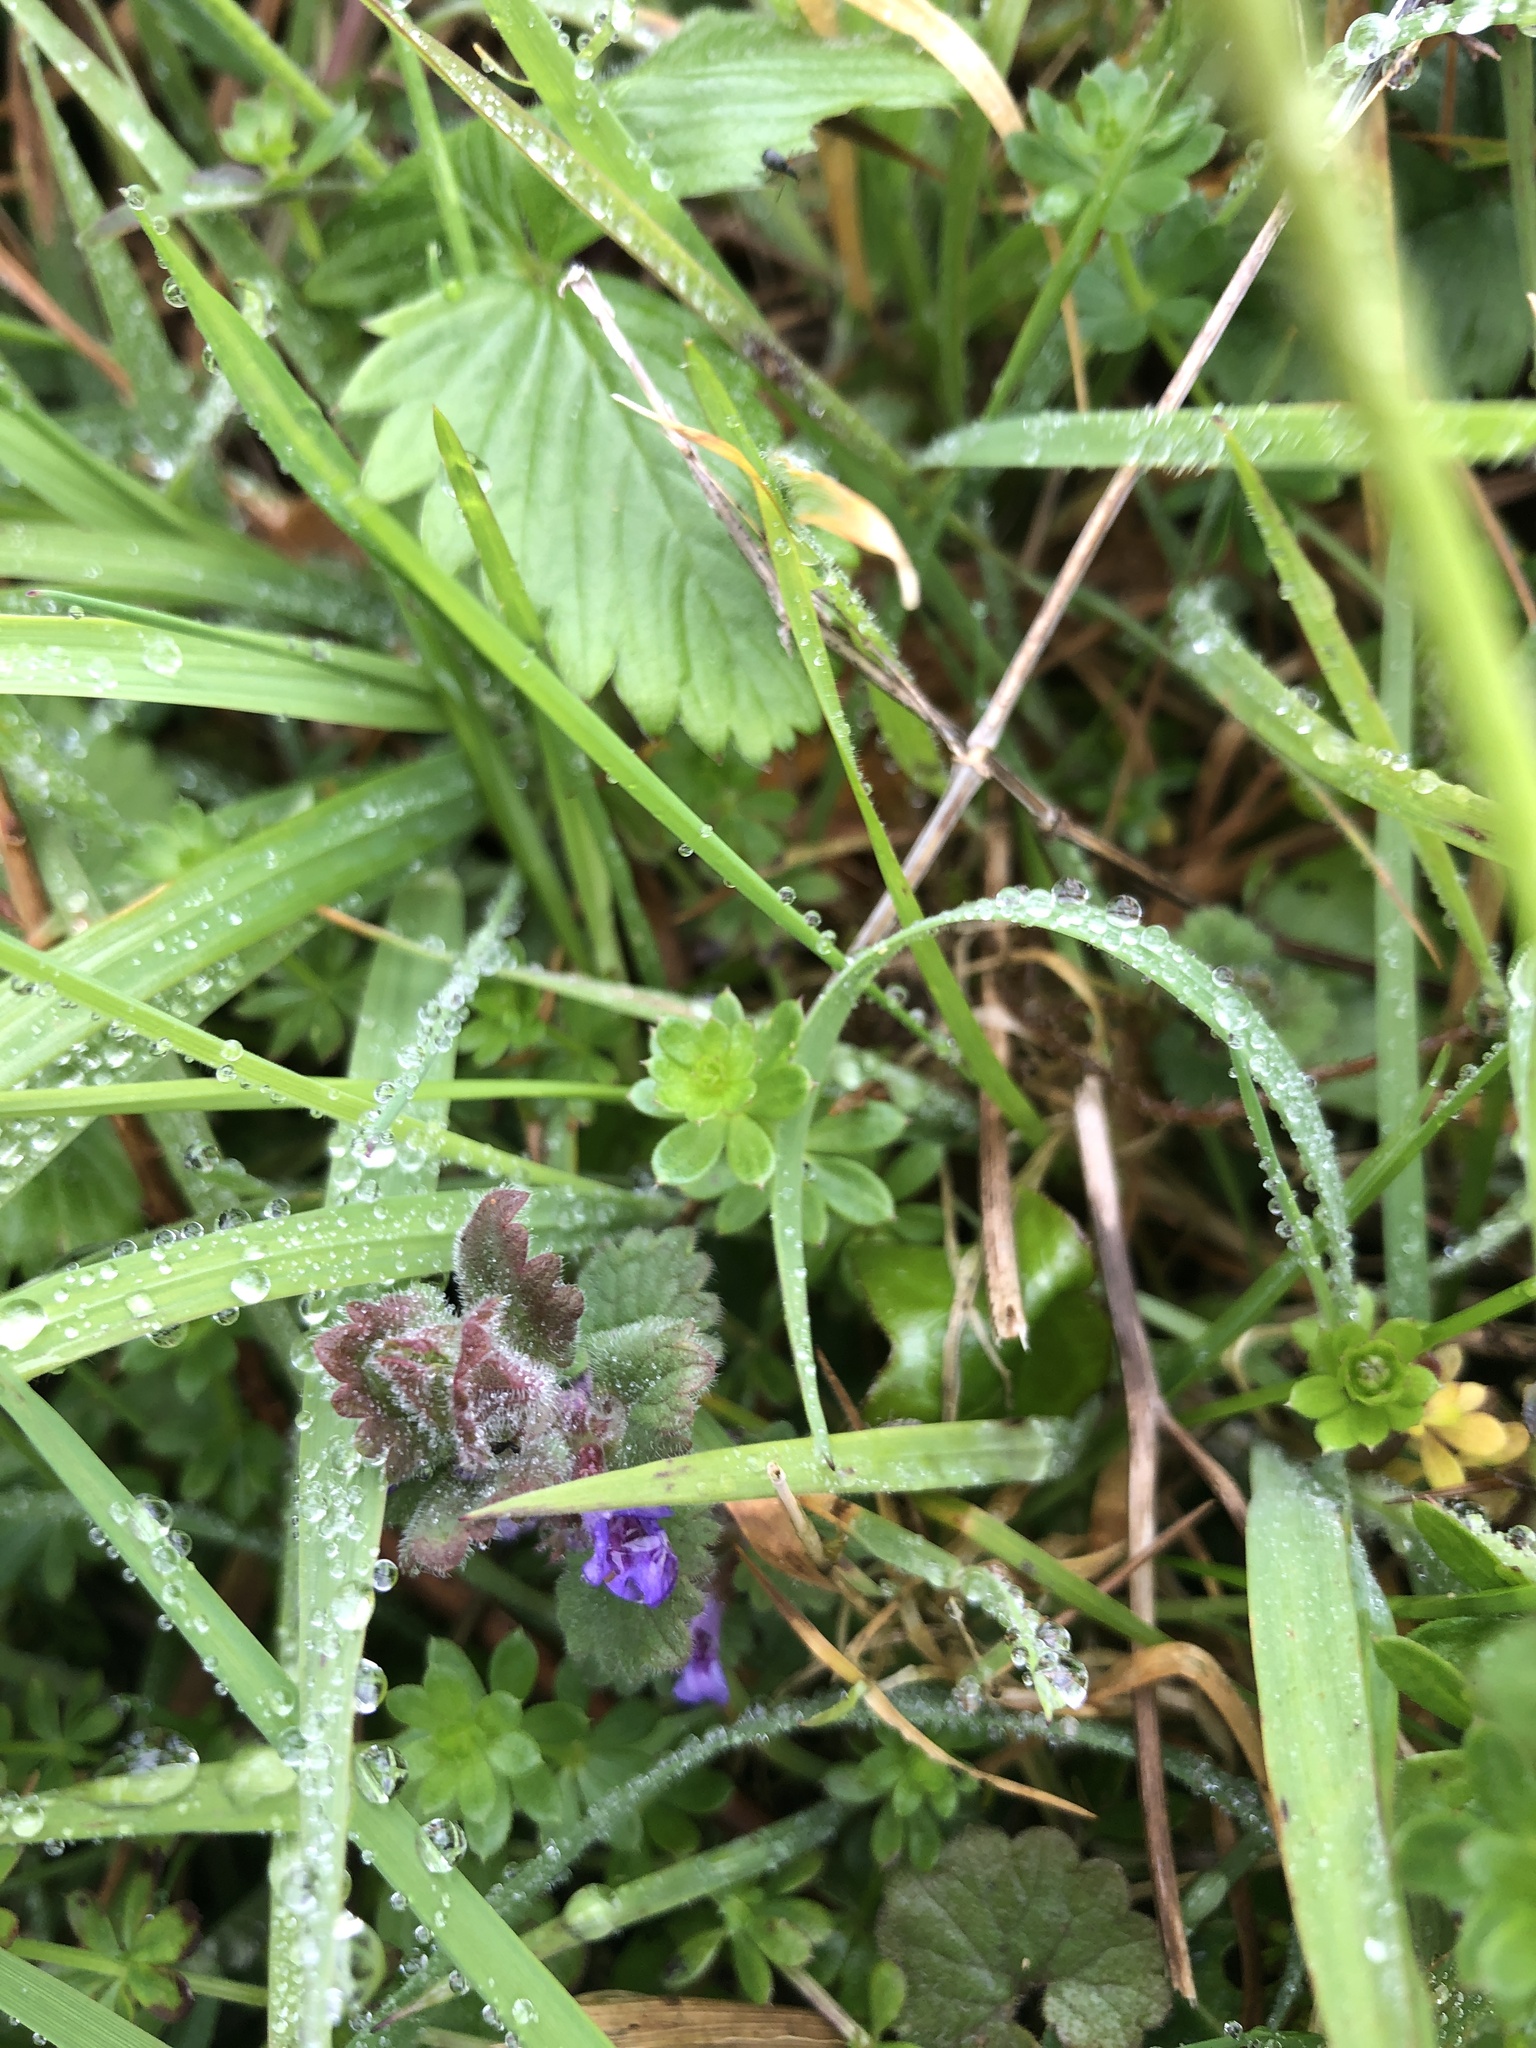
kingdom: Plantae
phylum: Tracheophyta
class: Magnoliopsida
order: Lamiales
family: Lamiaceae
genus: Glechoma
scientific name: Glechoma hederacea
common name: Ground ivy
